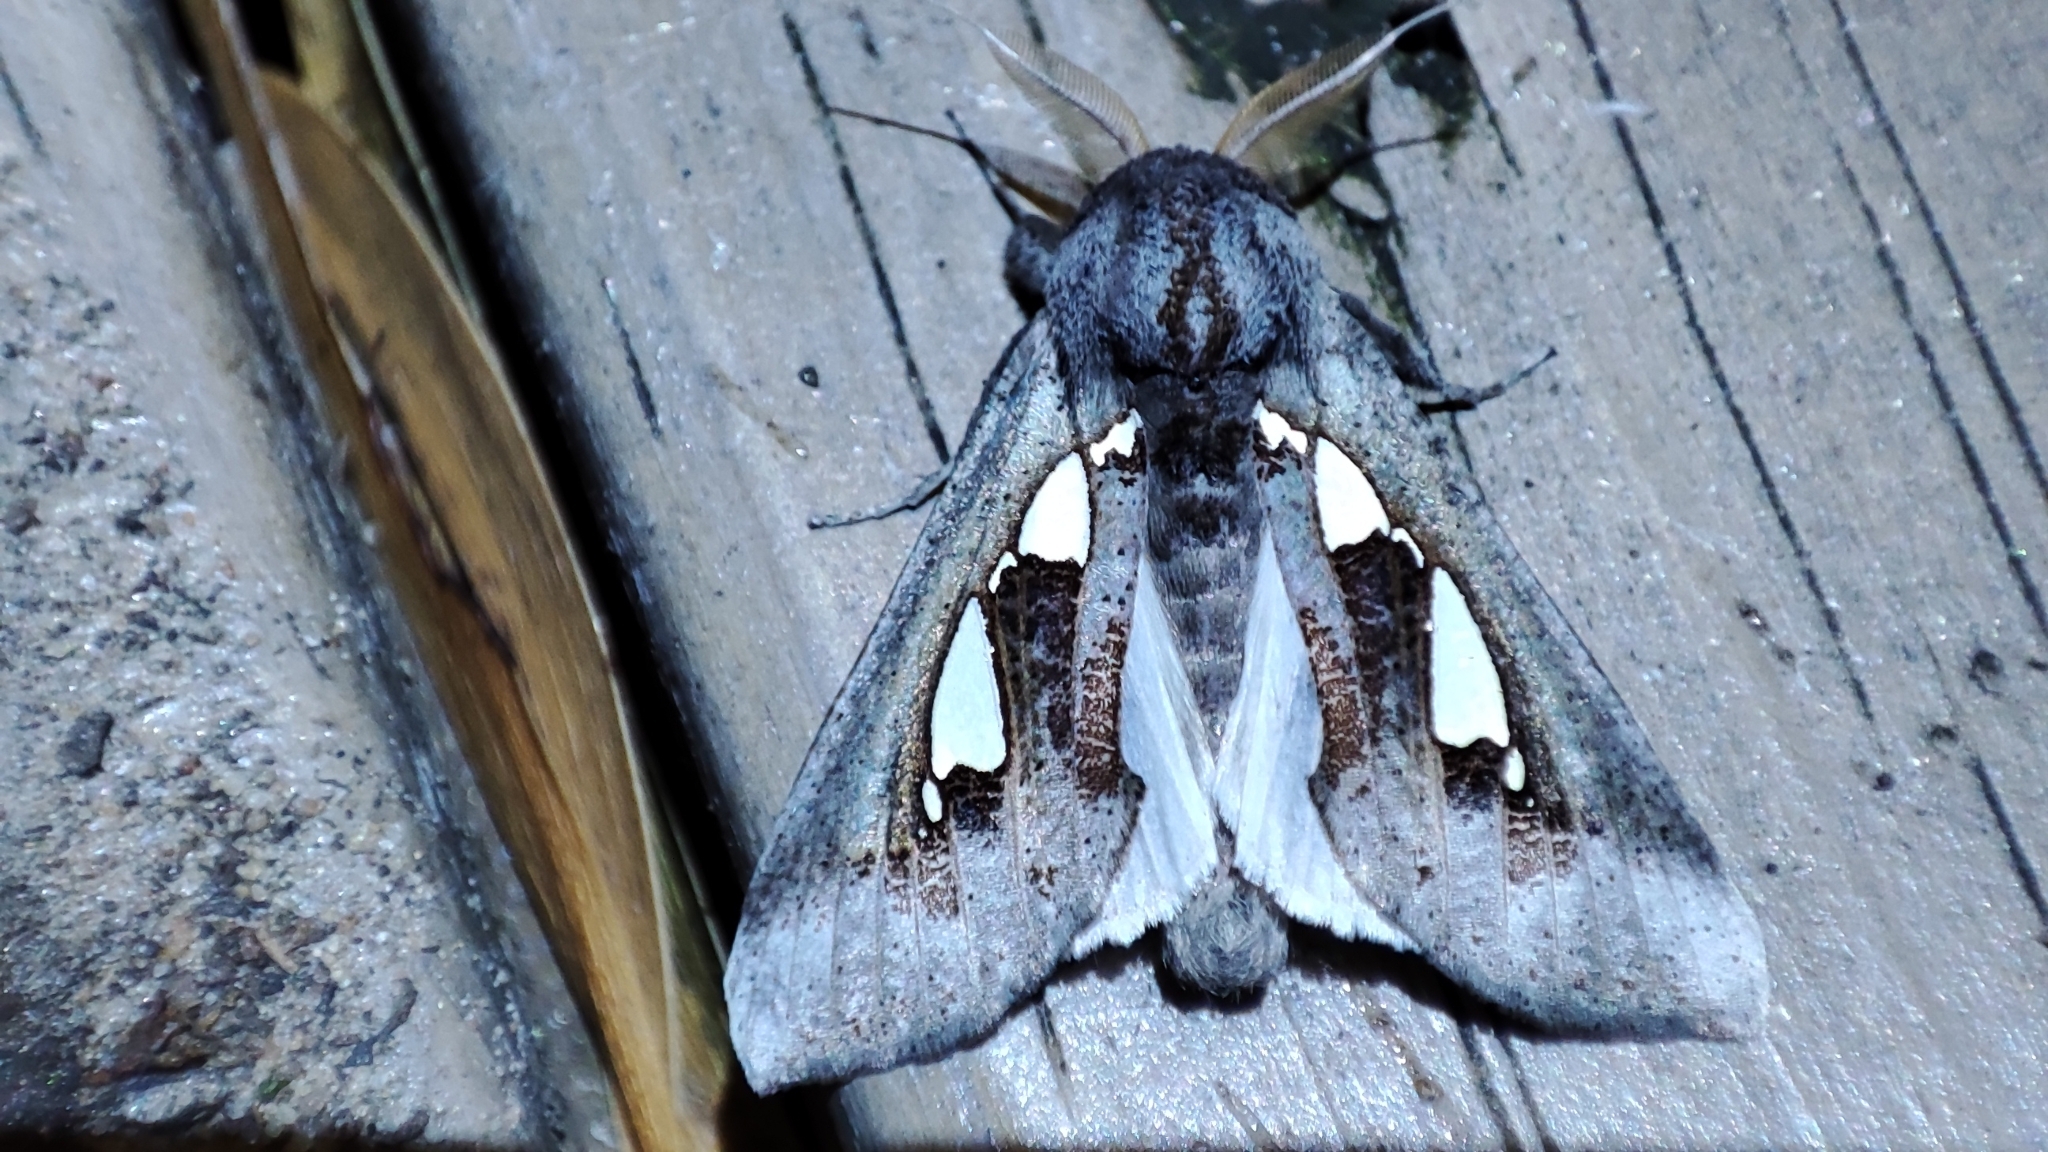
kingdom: Animalia
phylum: Arthropoda
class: Insecta
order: Lepidoptera
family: Erebidae
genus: Antiophlebia
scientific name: Antiophlebia bracteata
